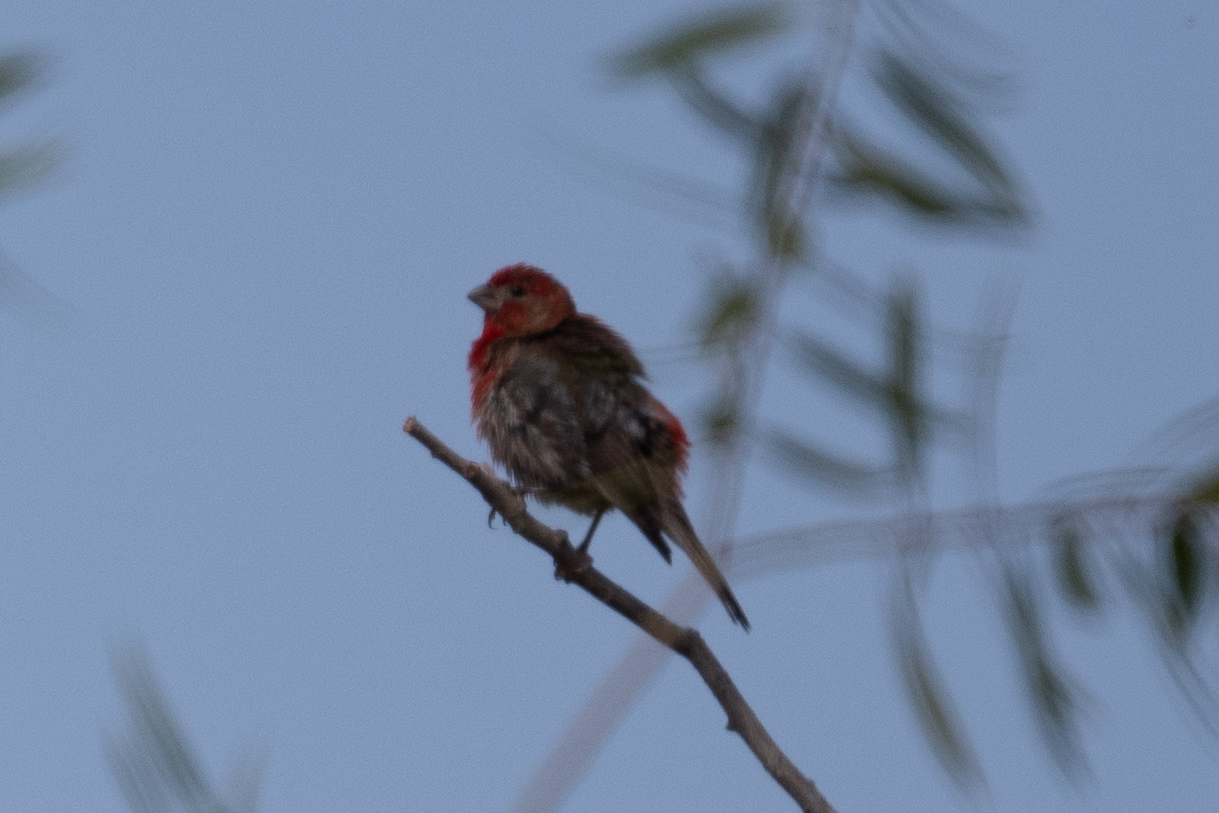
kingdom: Animalia
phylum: Chordata
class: Aves
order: Passeriformes
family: Fringillidae
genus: Haemorhous
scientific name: Haemorhous mexicanus
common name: House finch
